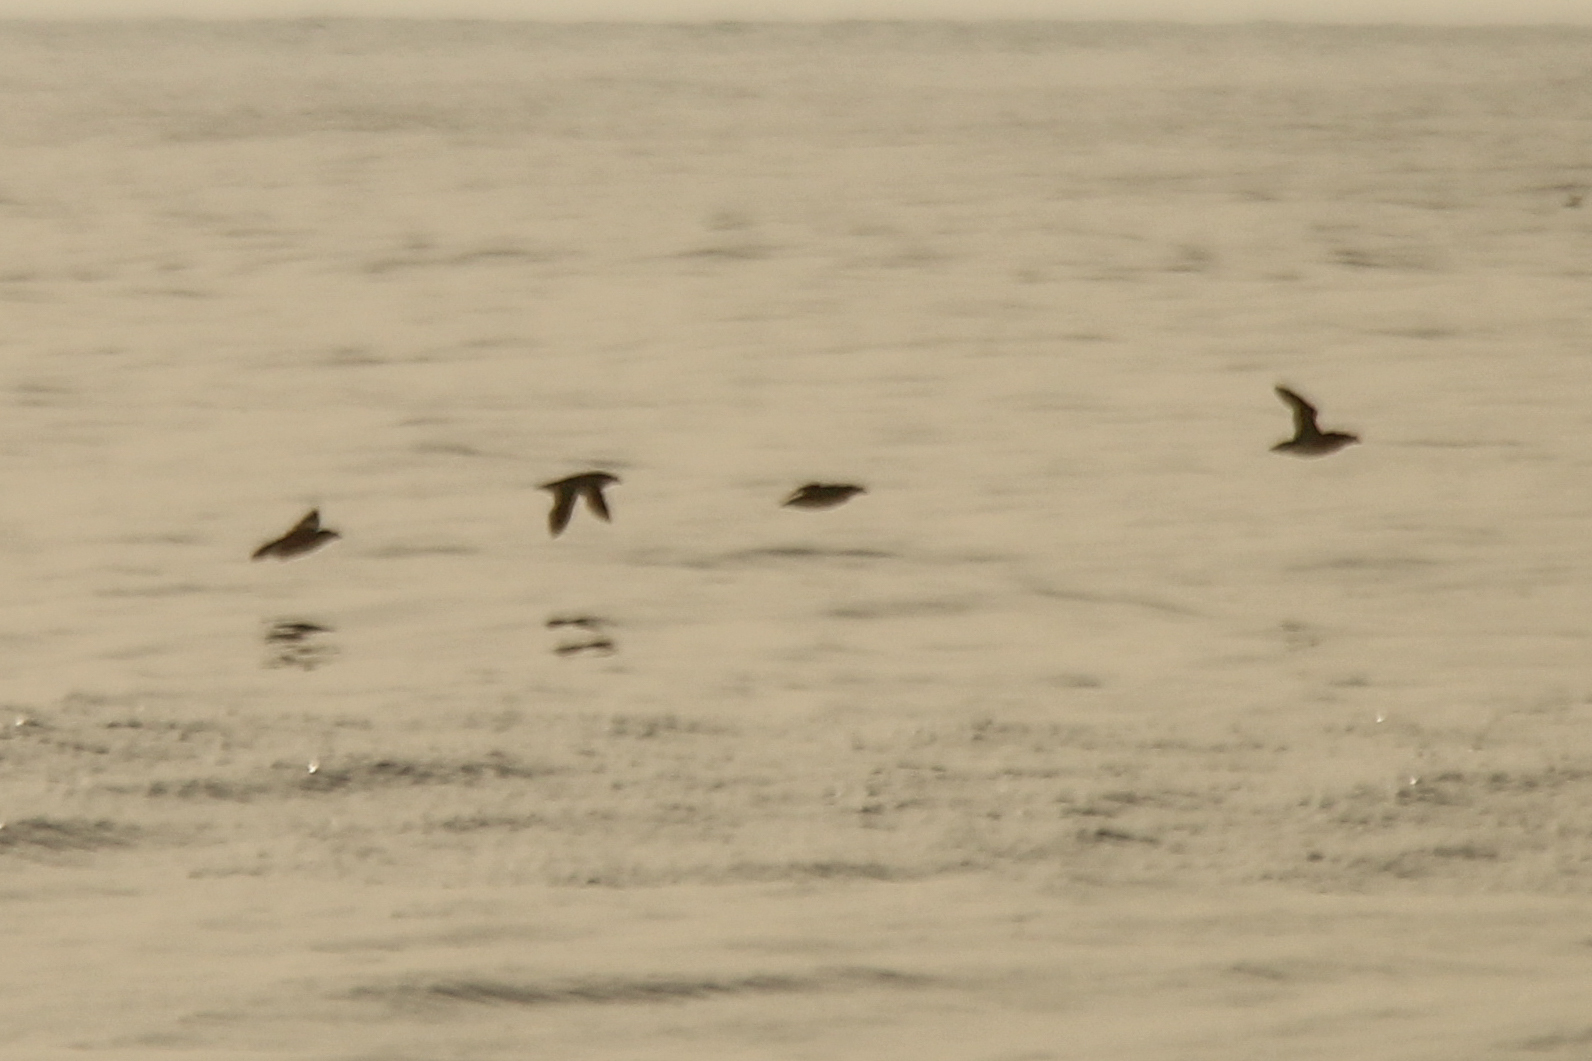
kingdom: Animalia
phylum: Chordata
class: Aves
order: Charadriiformes
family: Alcidae
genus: Cerorhinca
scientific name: Cerorhinca monocerata
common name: Rhinoceros auklet
